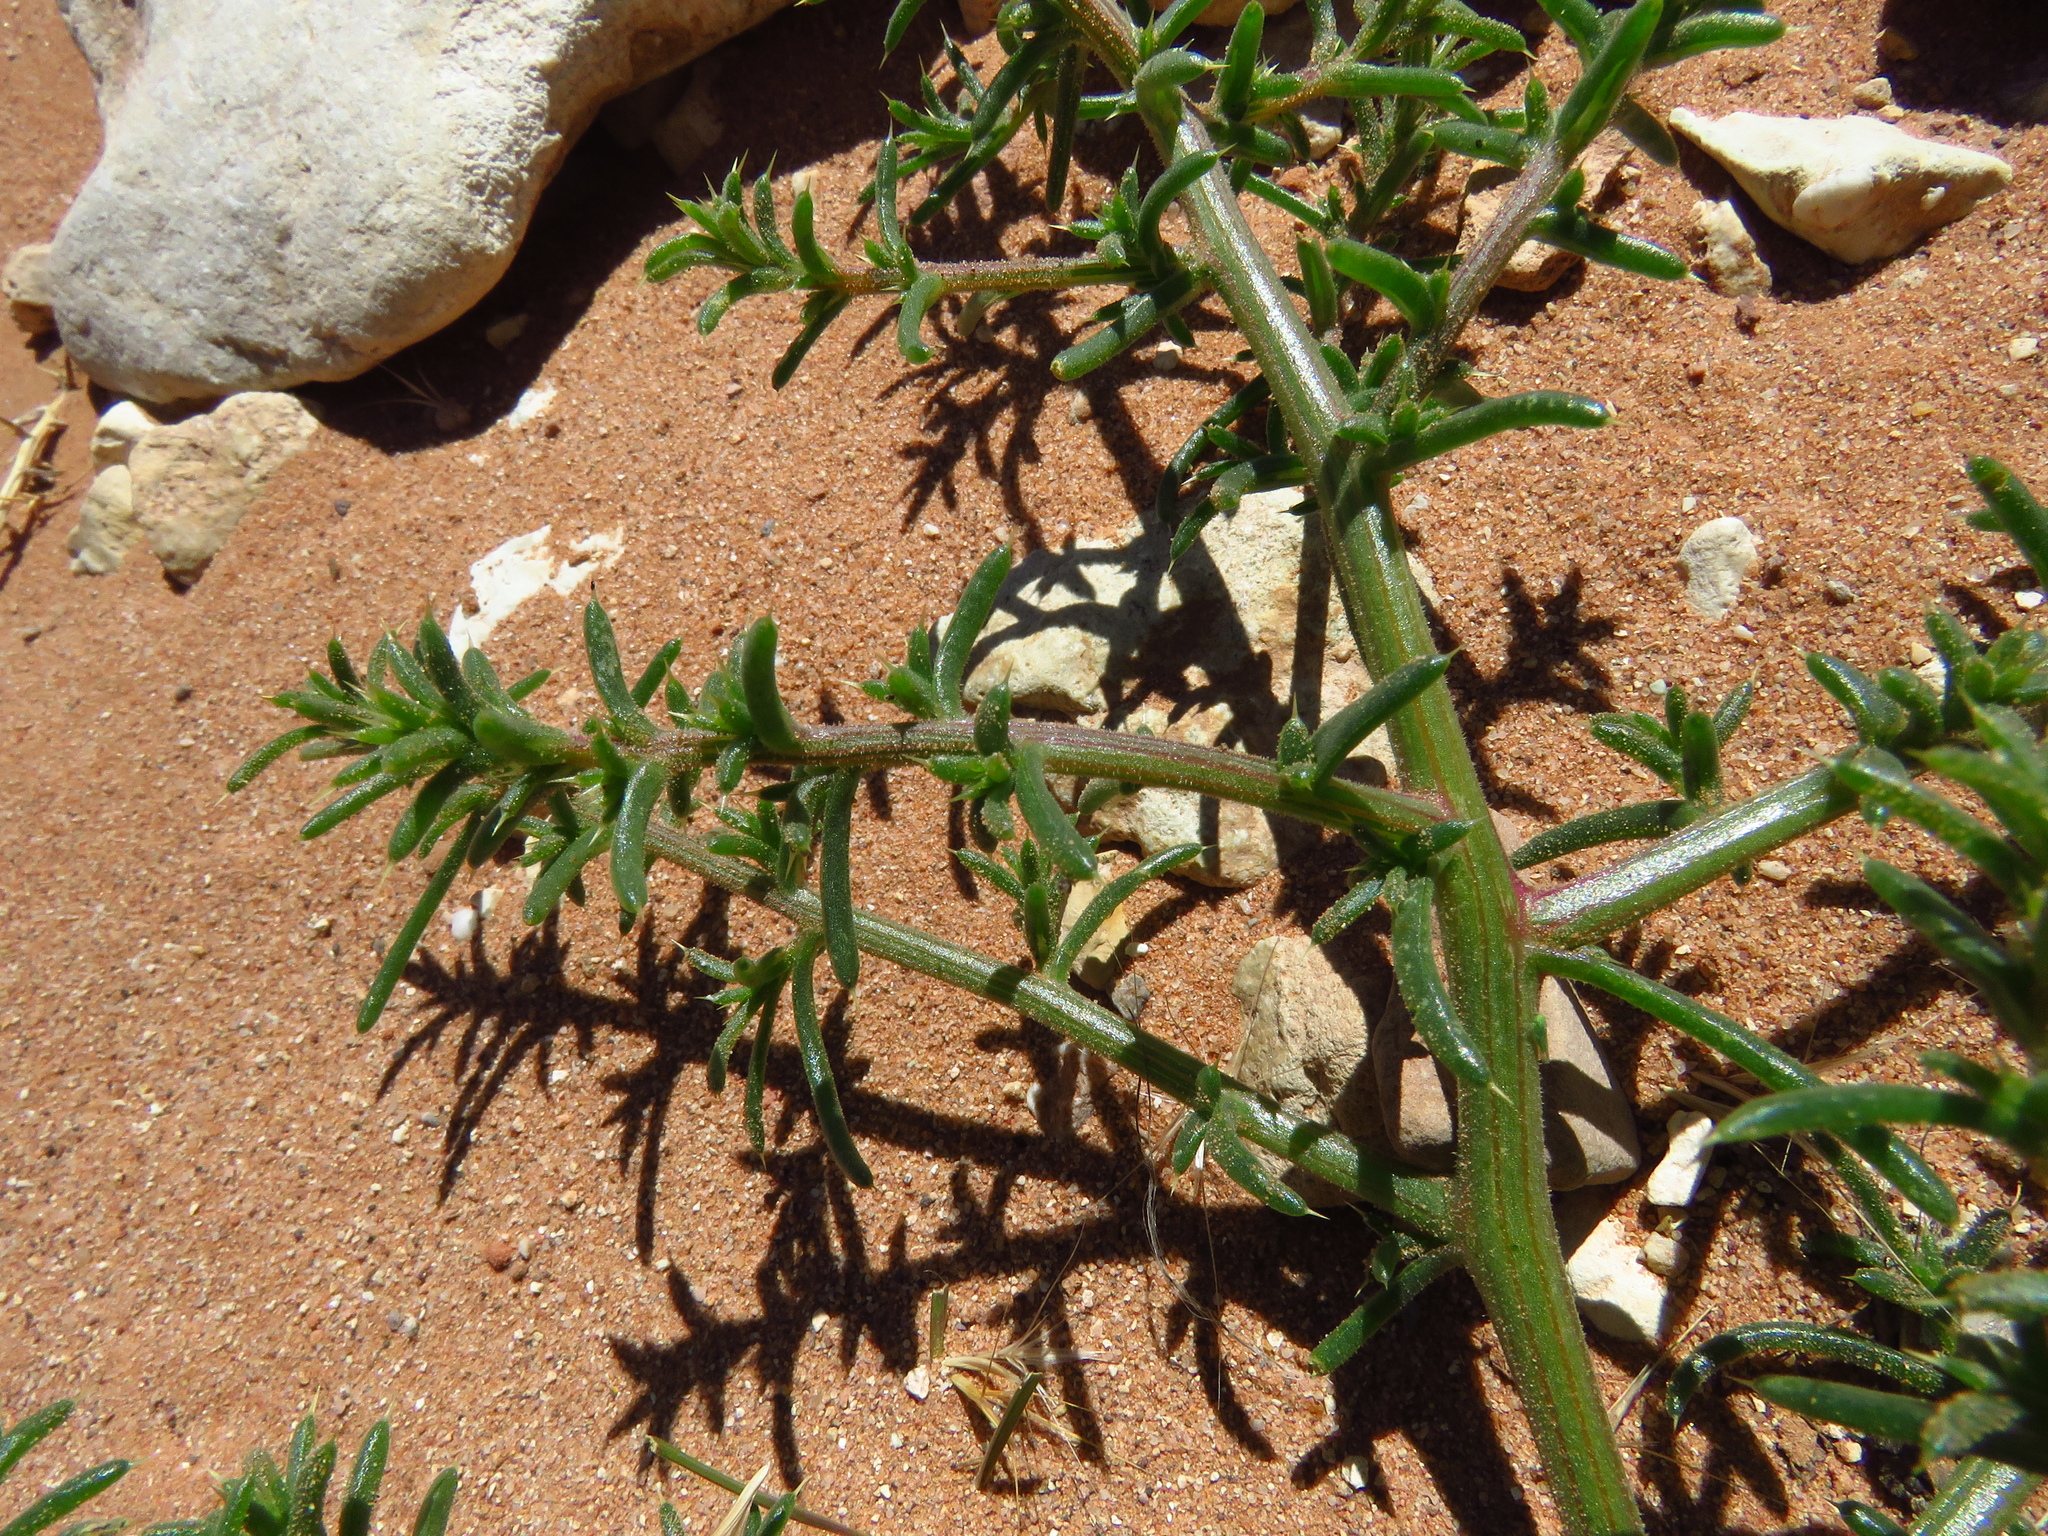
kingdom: Plantae
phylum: Tracheophyta
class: Magnoliopsida
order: Caryophyllales
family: Amaranthaceae
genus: Salsola
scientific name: Salsola tragus
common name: Prickly russian thistle
